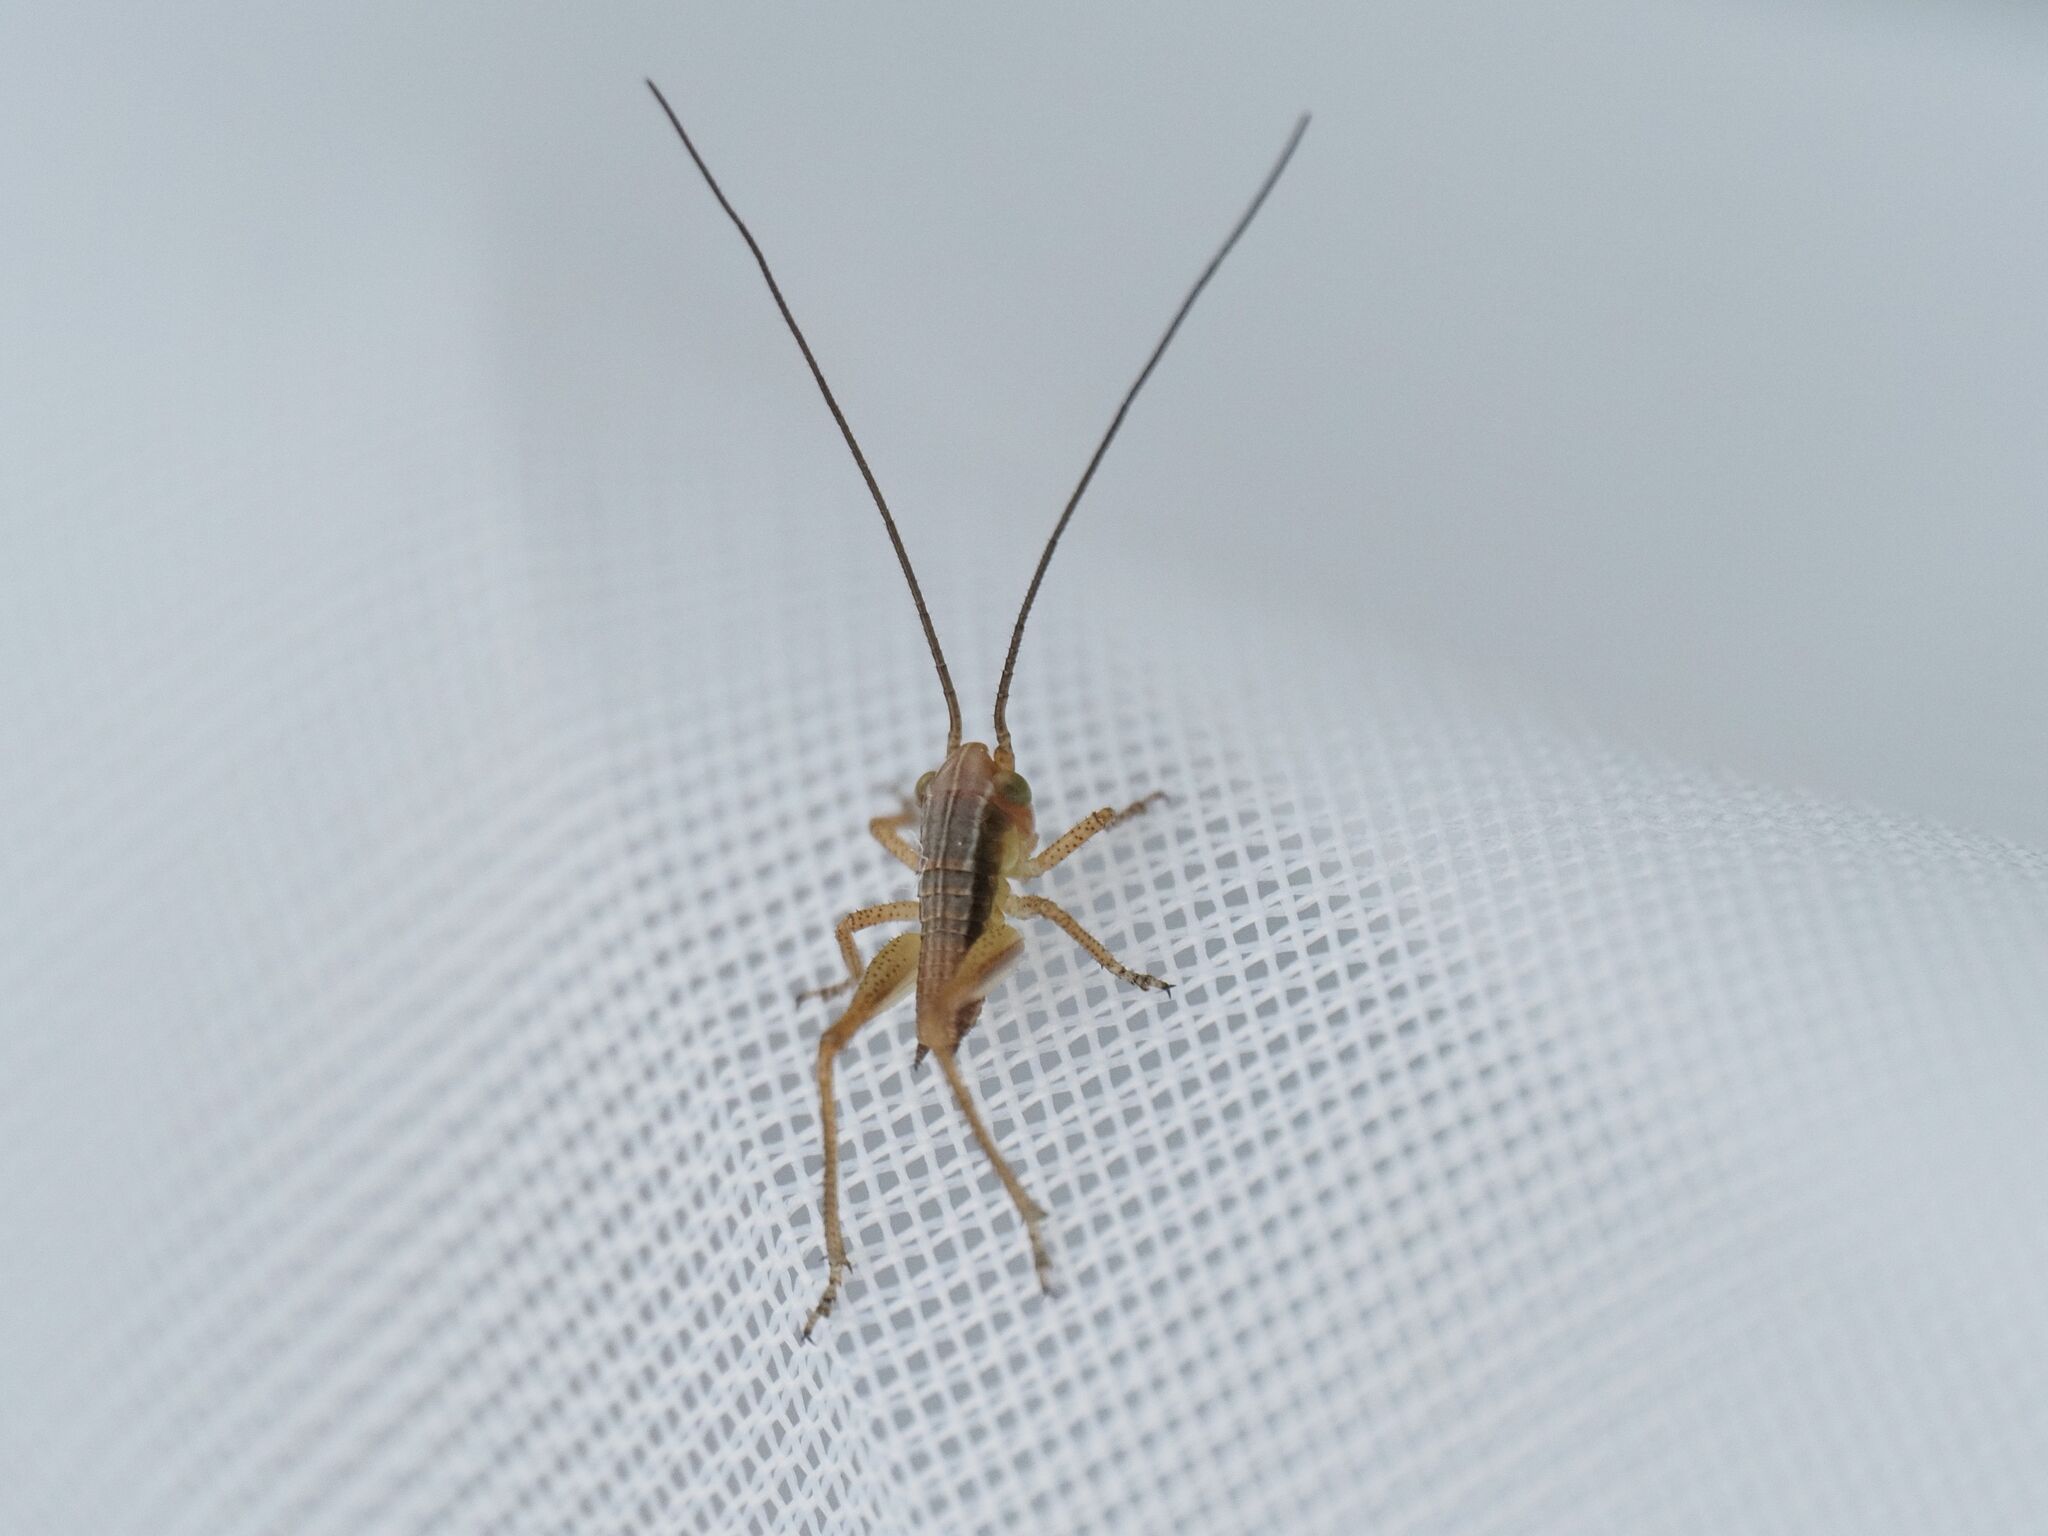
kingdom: Animalia
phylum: Arthropoda
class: Insecta
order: Orthoptera
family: Tettigoniidae
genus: Roeseliana
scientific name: Roeseliana roeselii
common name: Roesel's bush cricket
